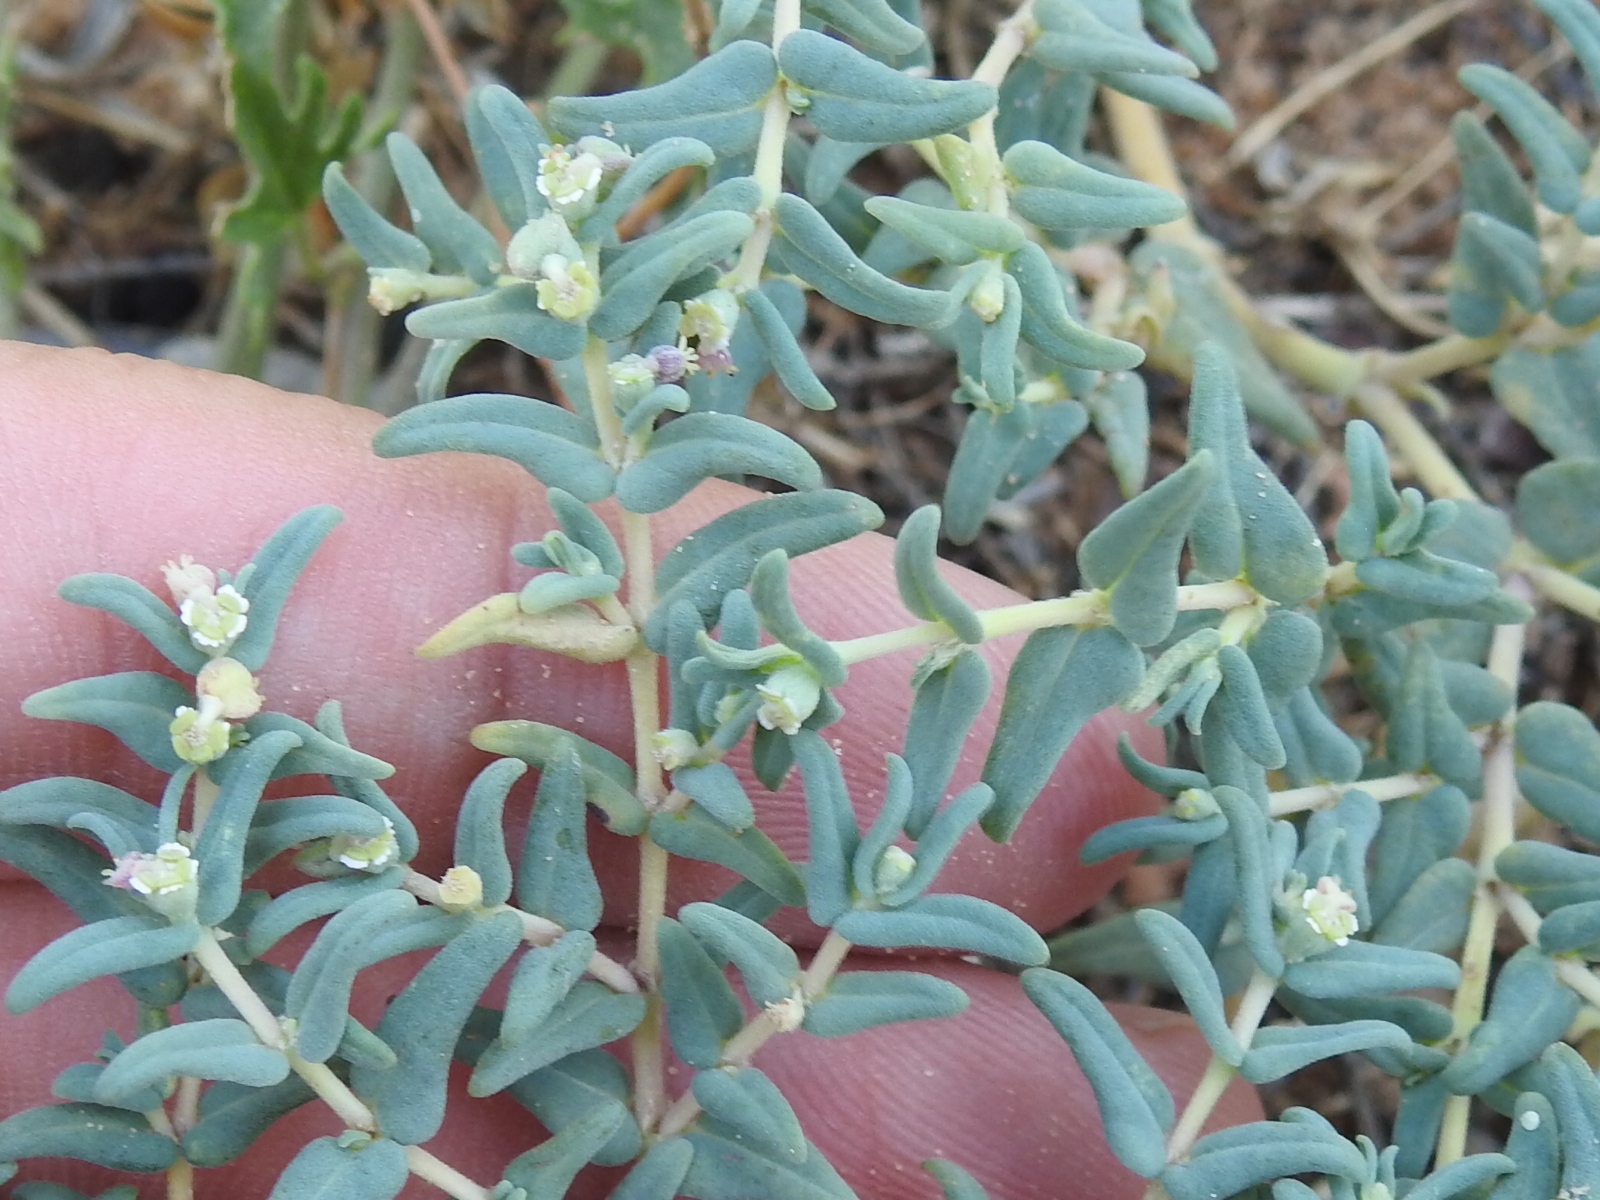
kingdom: Plantae
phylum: Tracheophyta
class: Magnoliopsida
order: Malpighiales
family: Euphorbiaceae
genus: Euphorbia
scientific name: Euphorbia lata
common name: Hoary euphorbia
